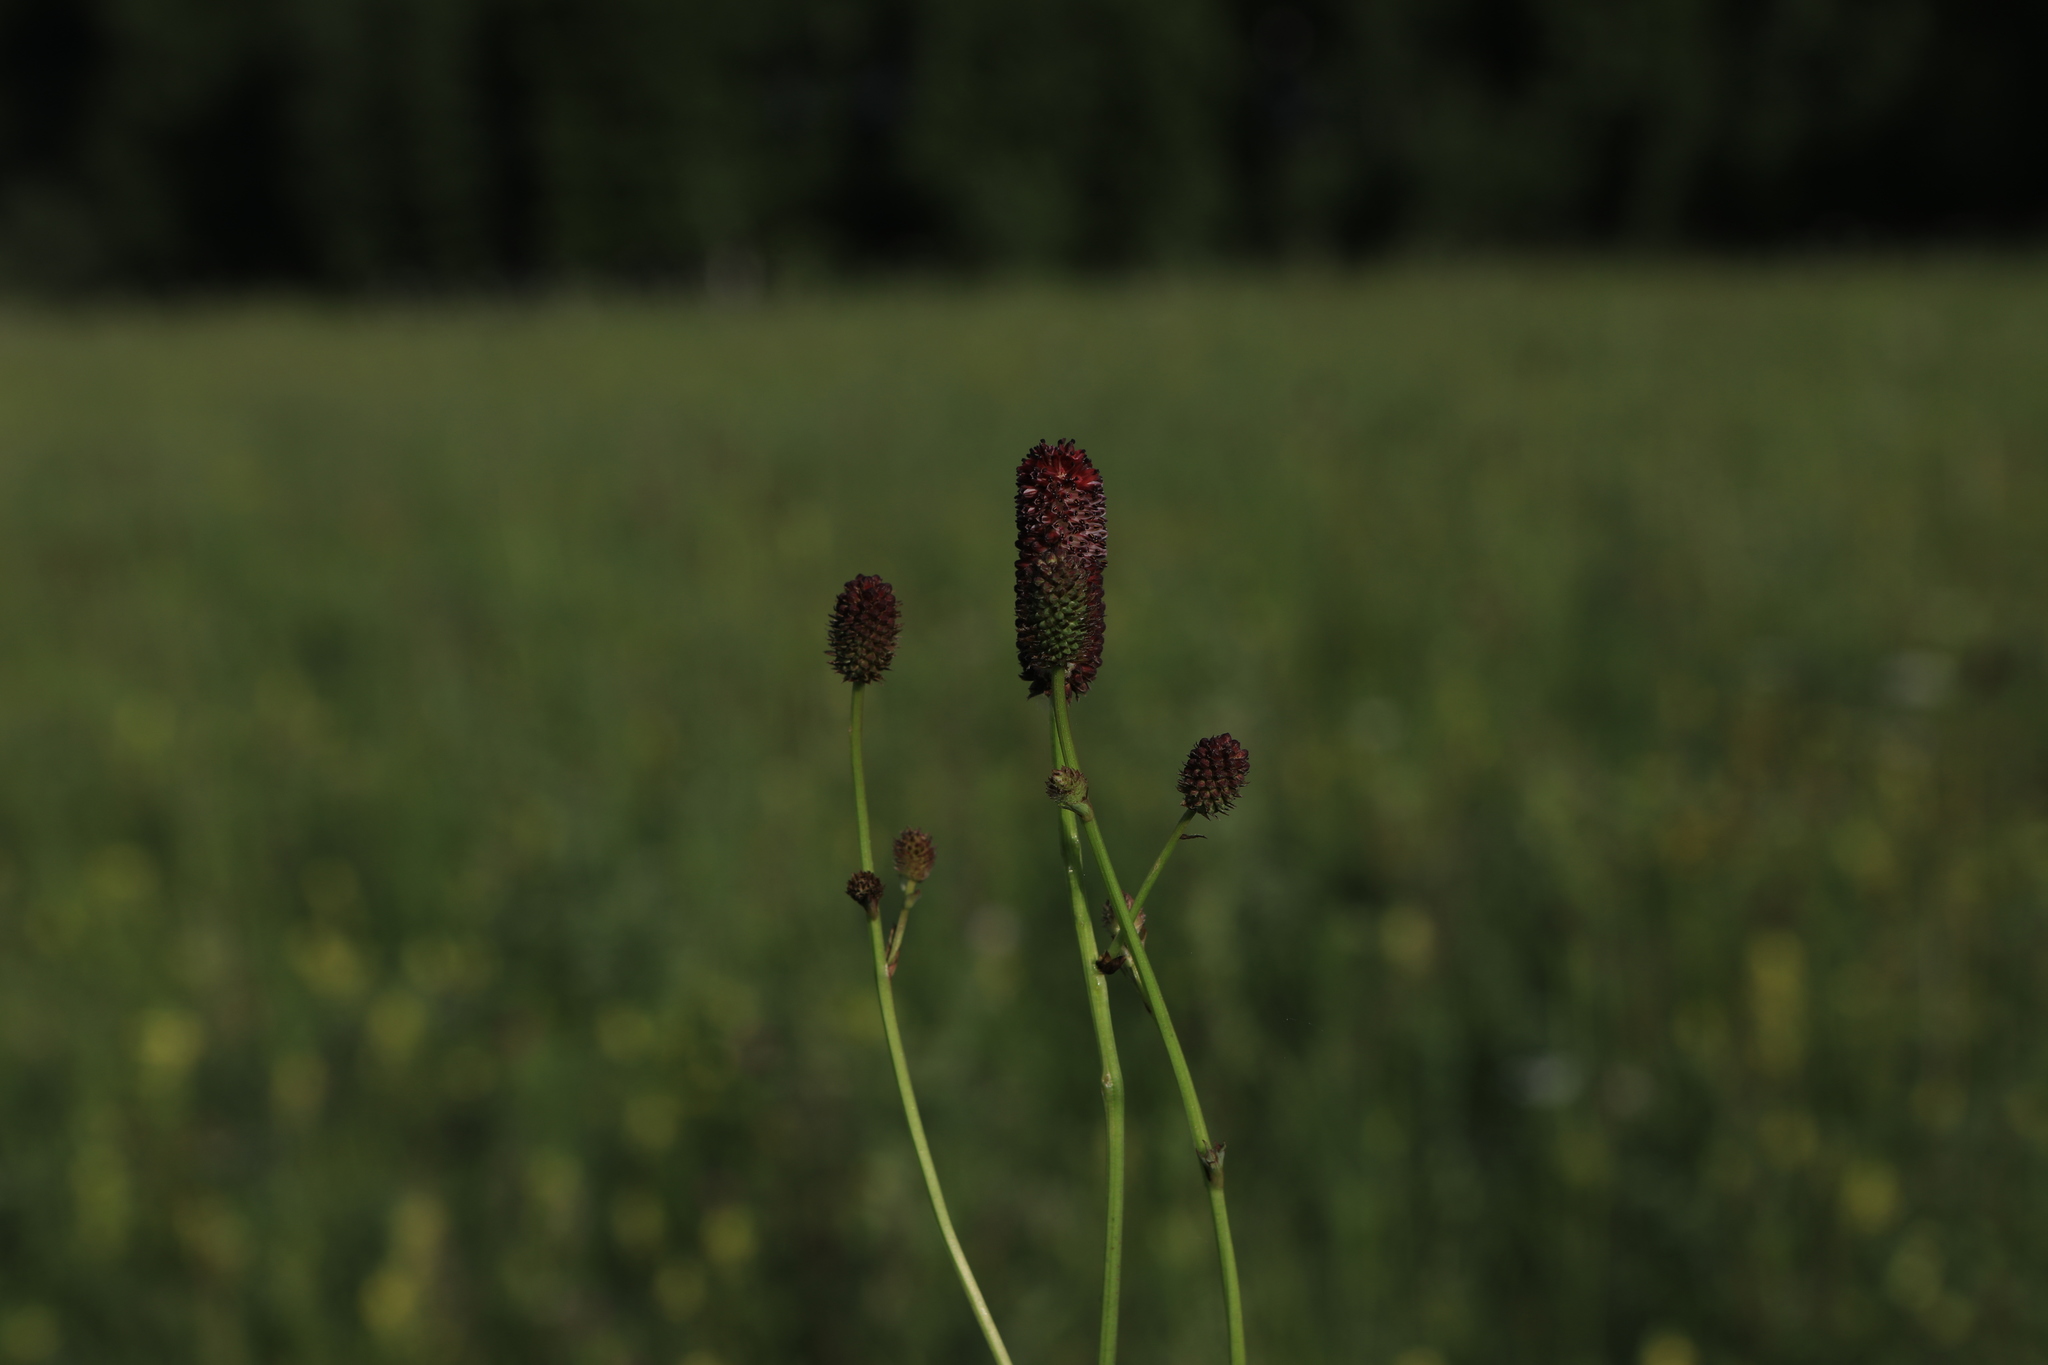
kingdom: Plantae
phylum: Tracheophyta
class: Magnoliopsida
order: Rosales
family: Rosaceae
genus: Sanguisorba
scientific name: Sanguisorba officinalis
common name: Great burnet
